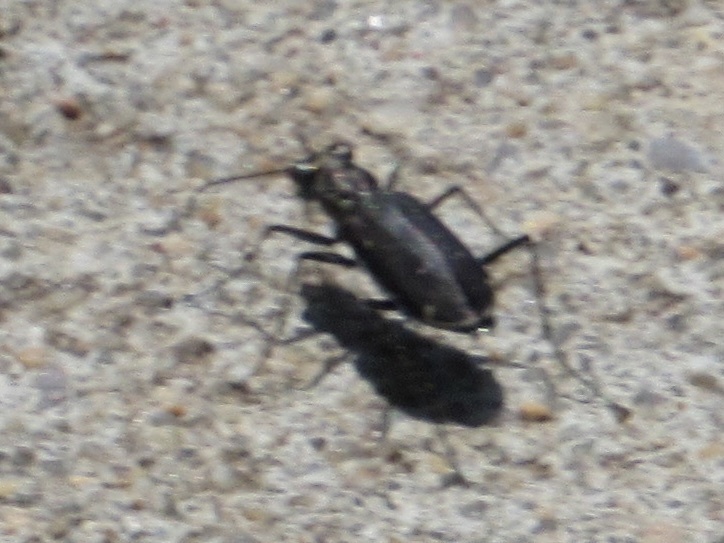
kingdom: Animalia
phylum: Arthropoda
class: Insecta
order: Coleoptera
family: Carabidae
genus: Cicindela
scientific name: Cicindela punctulata
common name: Punctured tiger beetle
